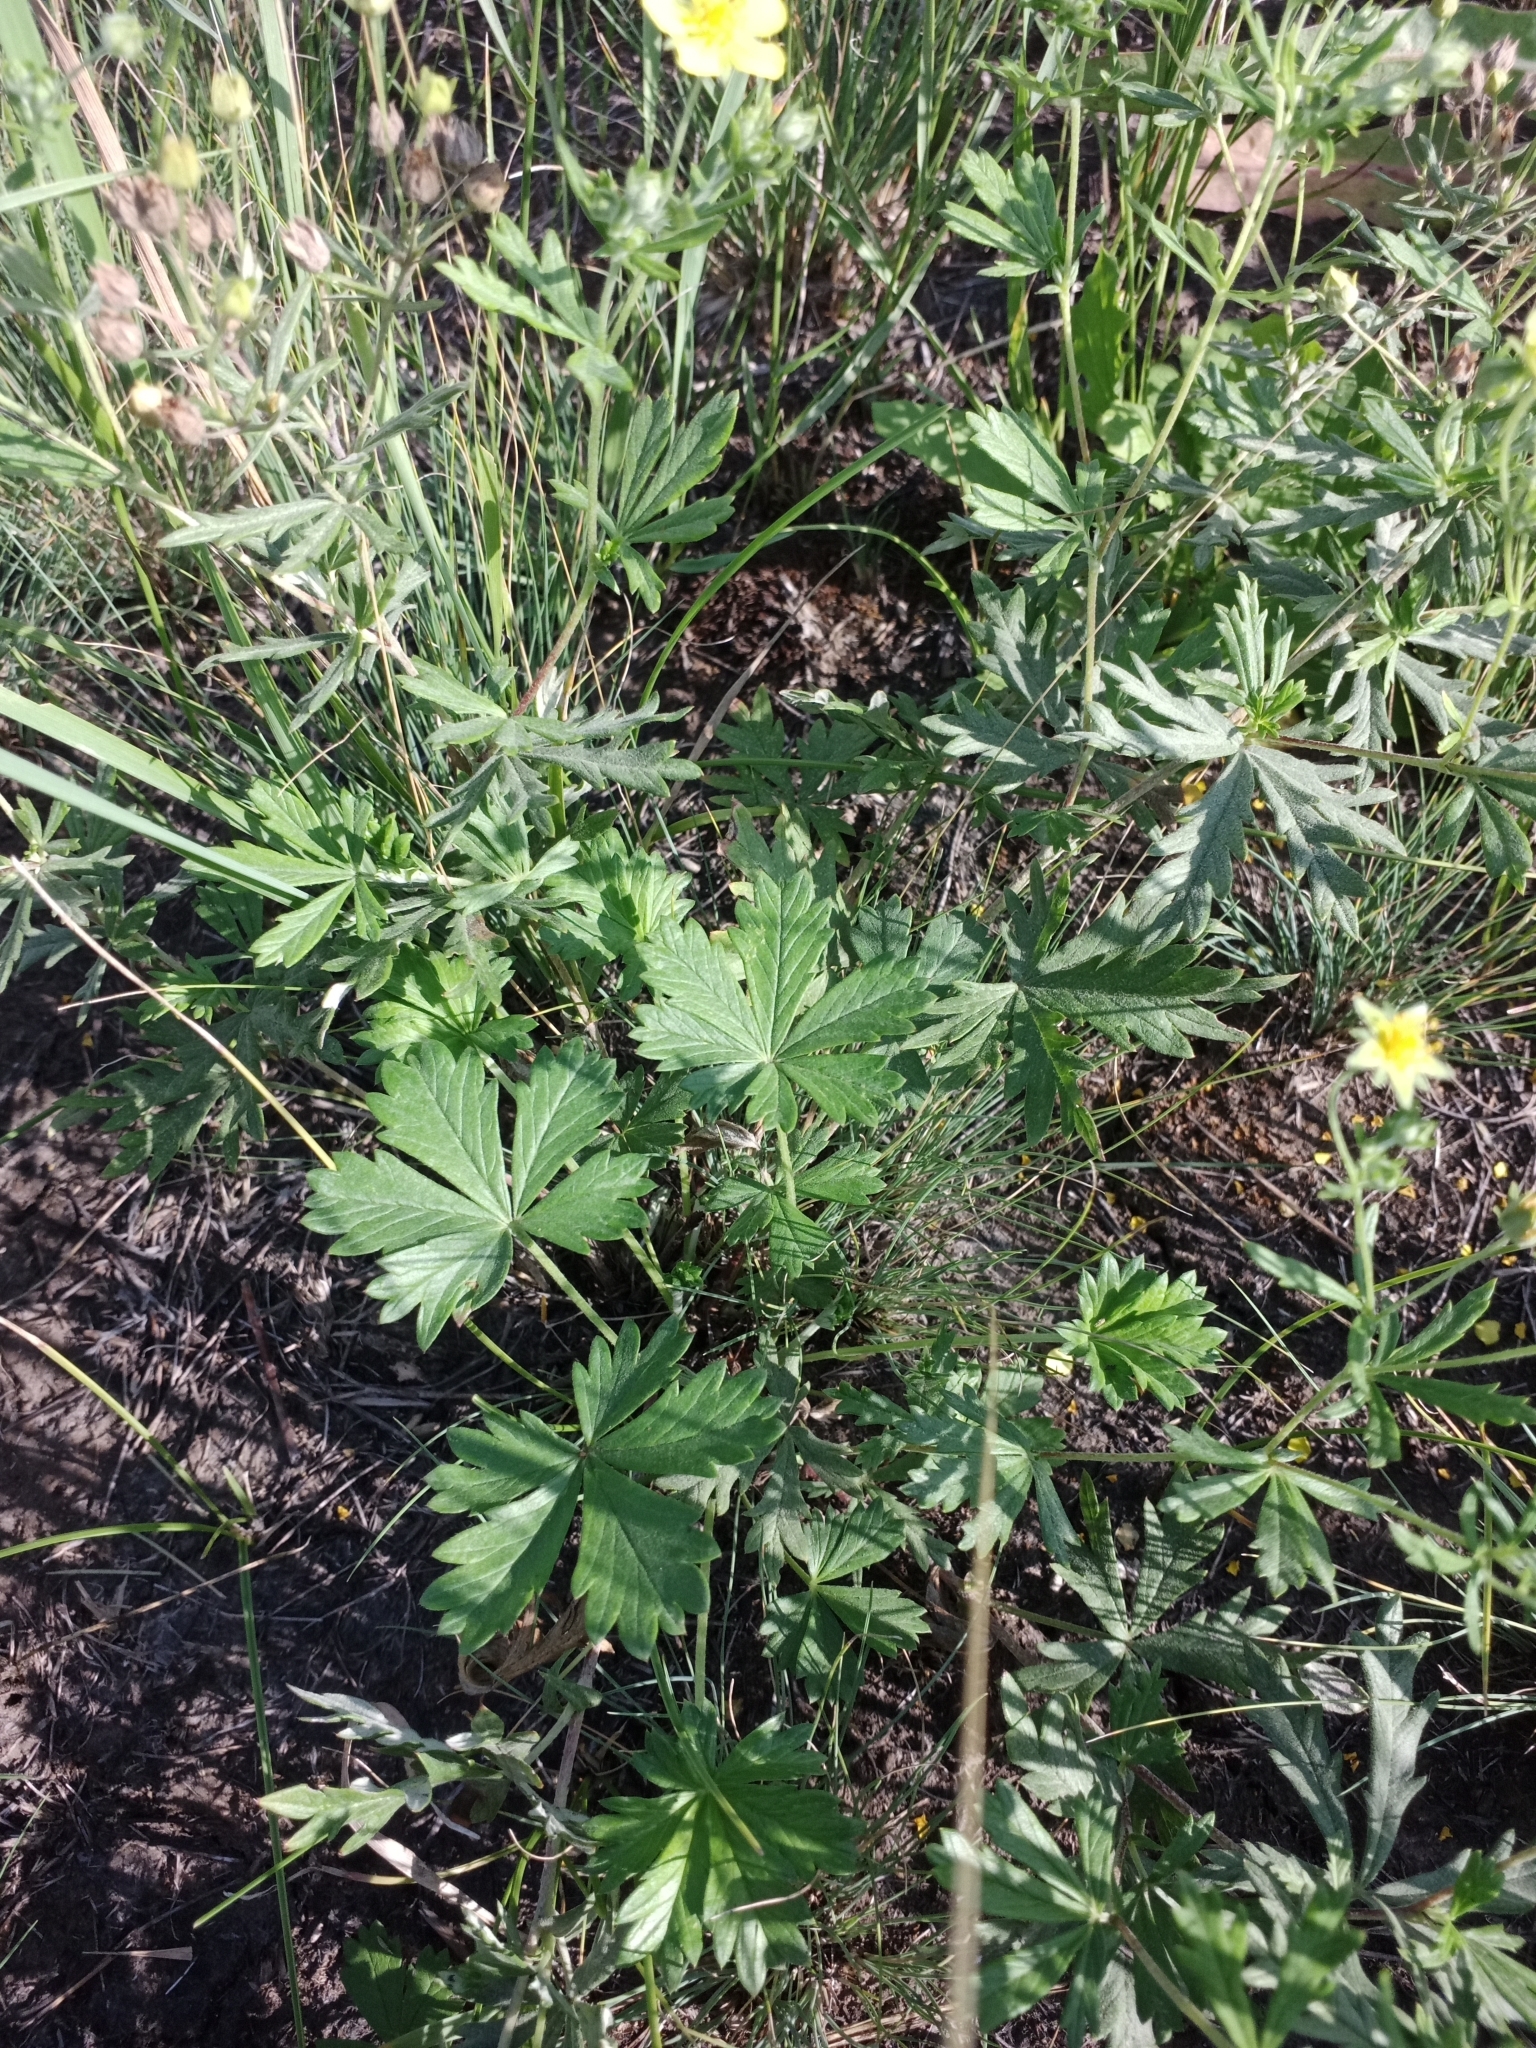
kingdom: Plantae
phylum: Tracheophyta
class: Magnoliopsida
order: Rosales
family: Rosaceae
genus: Potentilla
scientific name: Potentilla argentea
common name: Hoary cinquefoil
